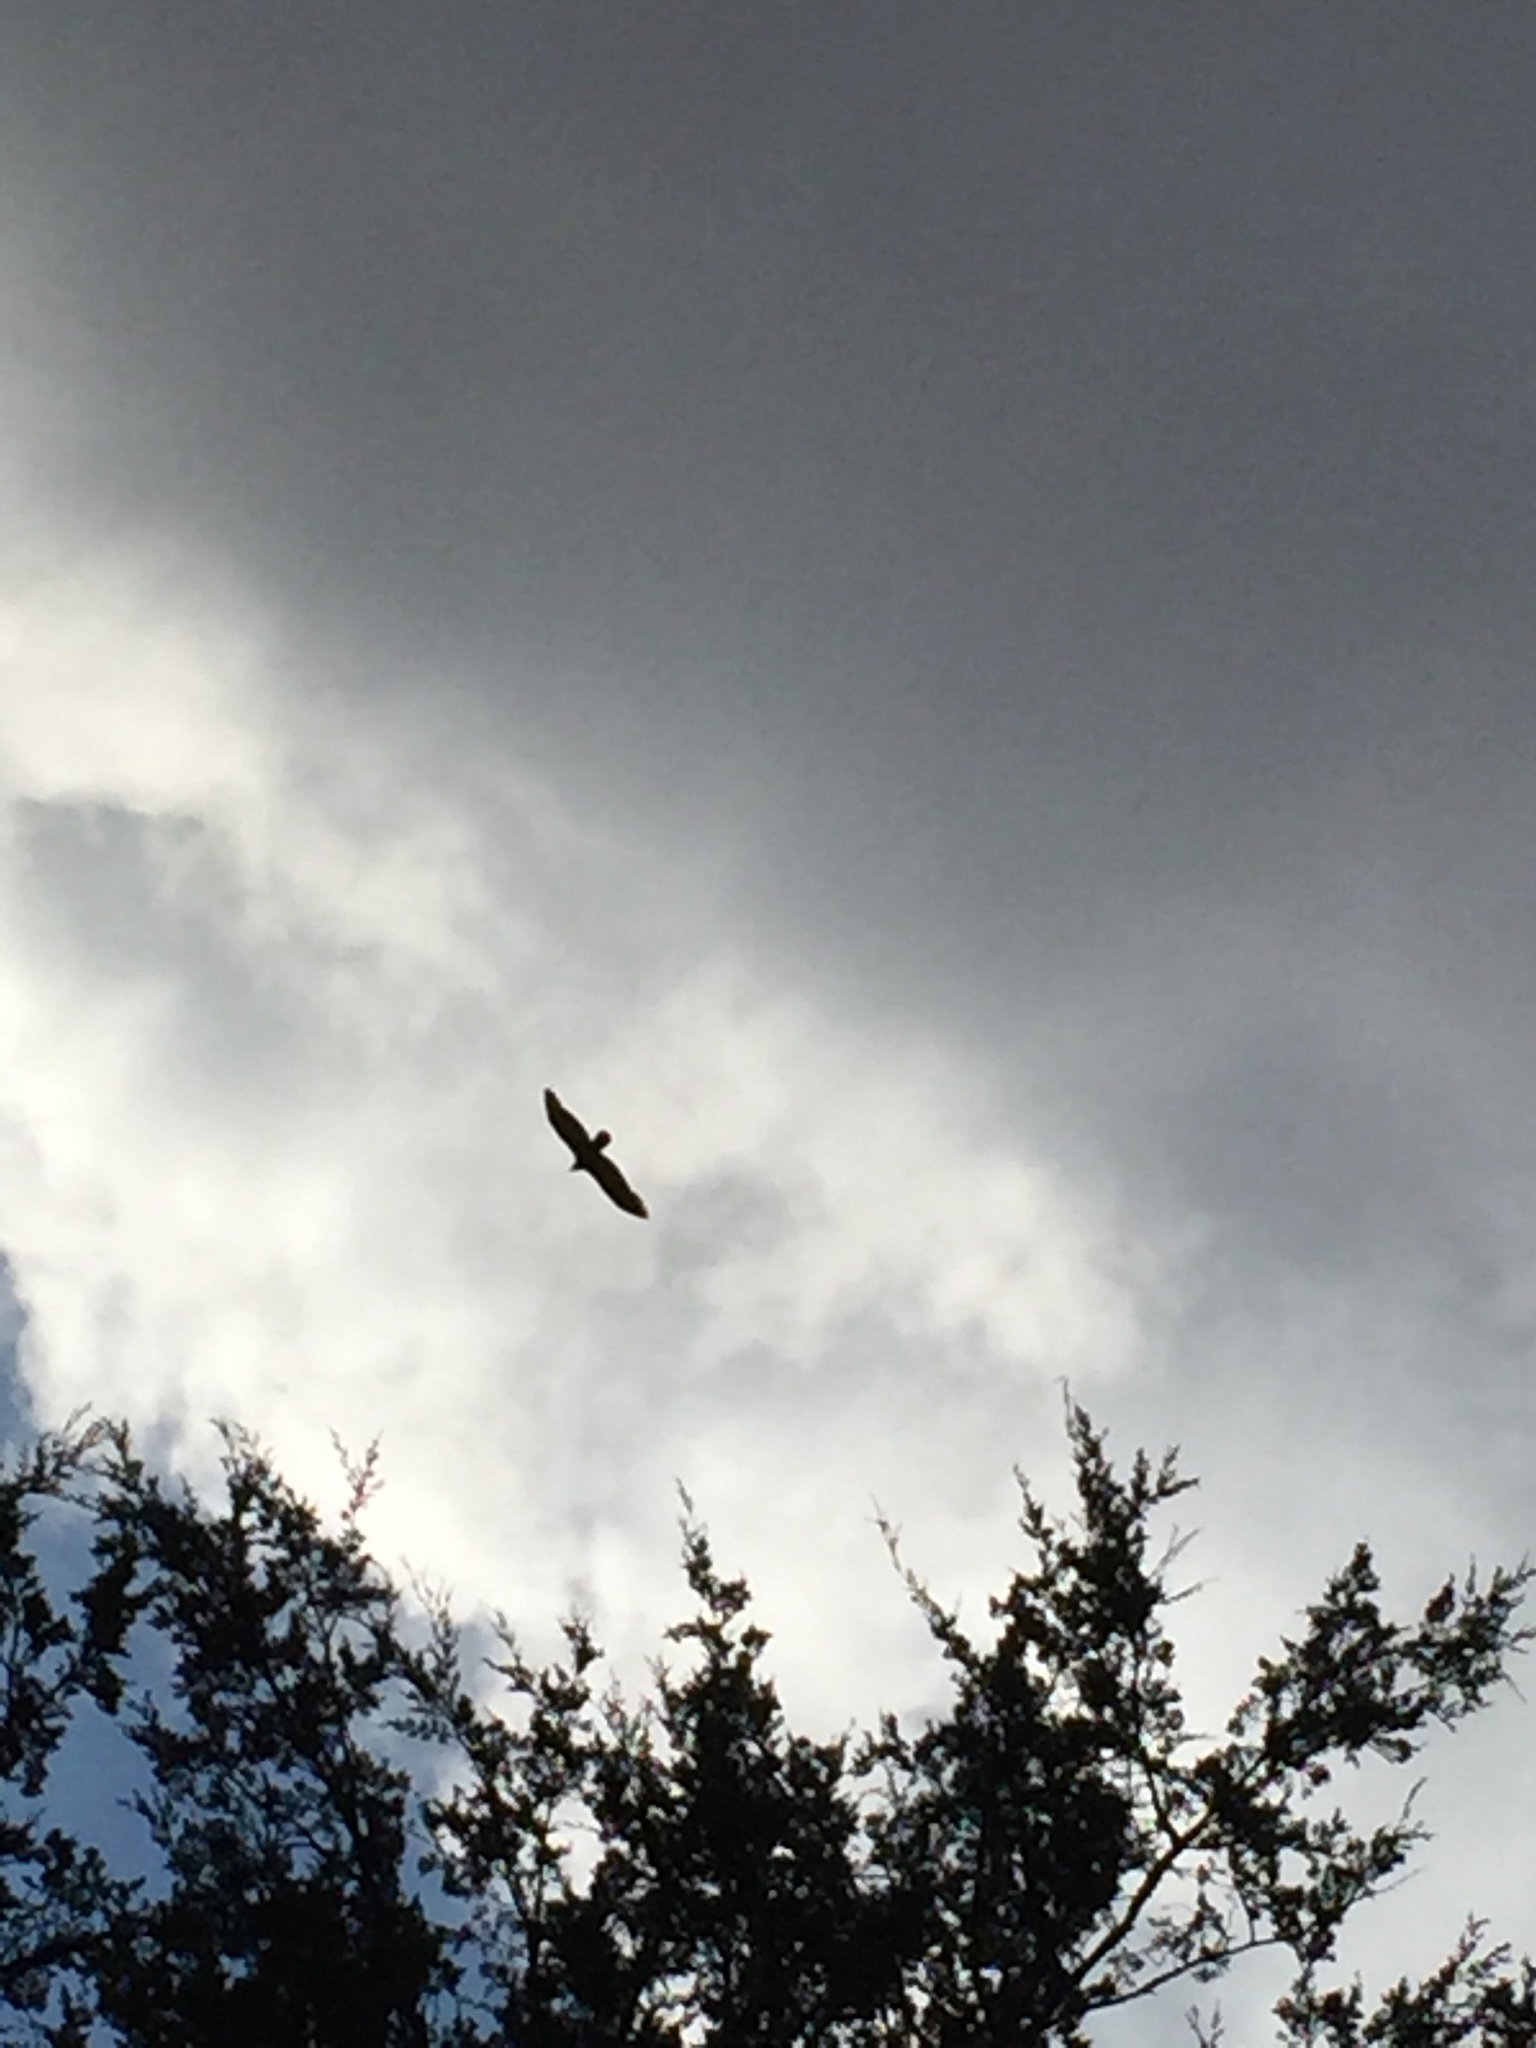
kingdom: Animalia
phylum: Chordata
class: Aves
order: Accipitriformes
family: Cathartidae
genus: Cathartes
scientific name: Cathartes aura
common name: Turkey vulture
